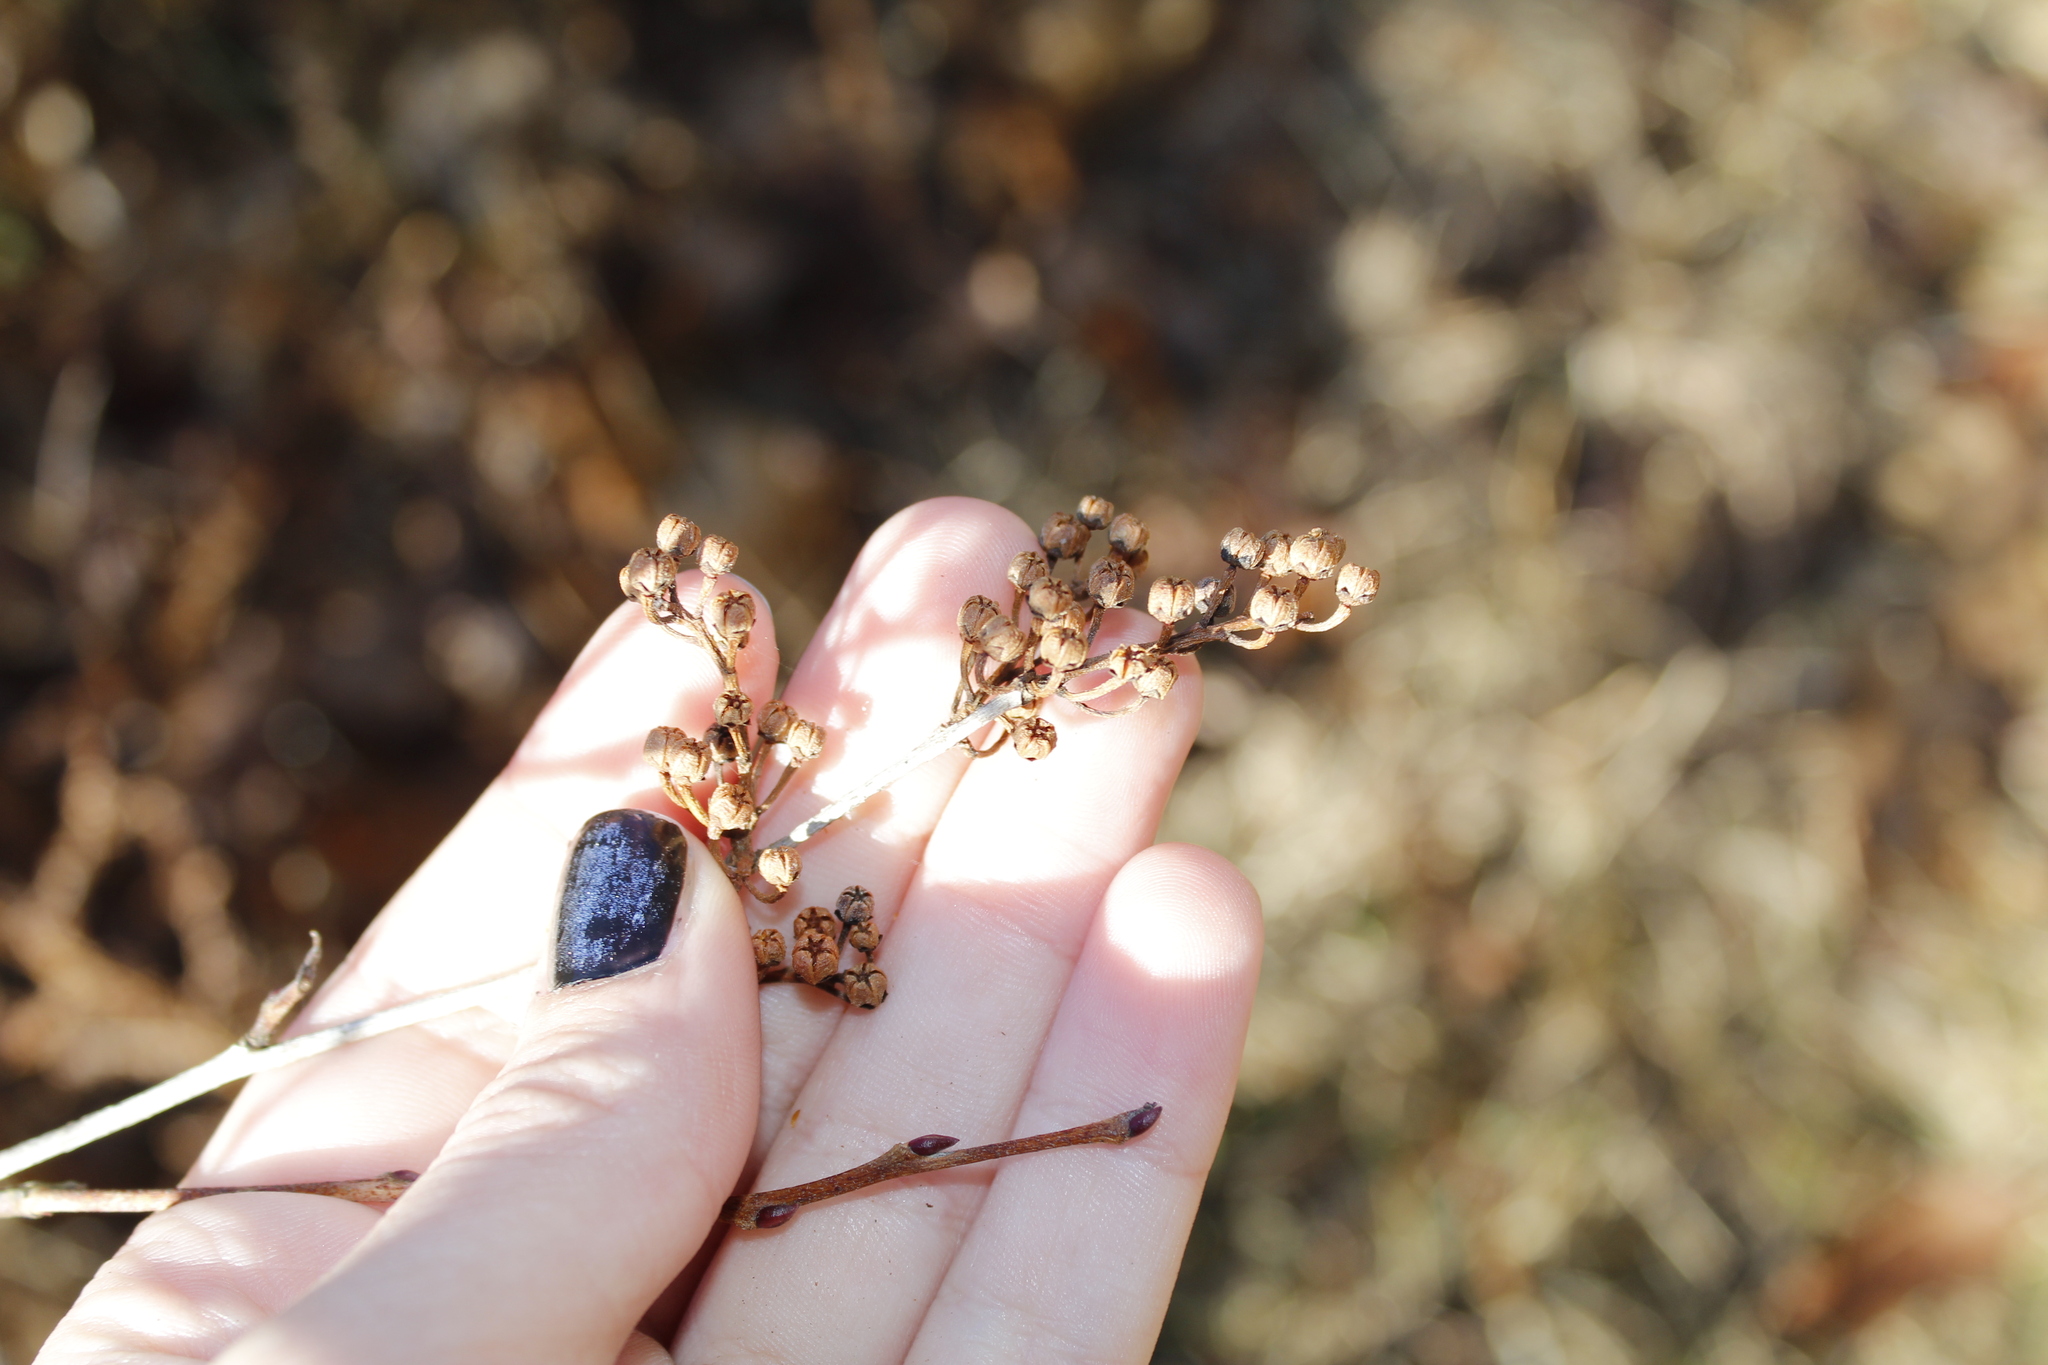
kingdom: Plantae
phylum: Tracheophyta
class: Magnoliopsida
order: Ericales
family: Ericaceae
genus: Lyonia
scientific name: Lyonia ligustrina
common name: Maleberry
